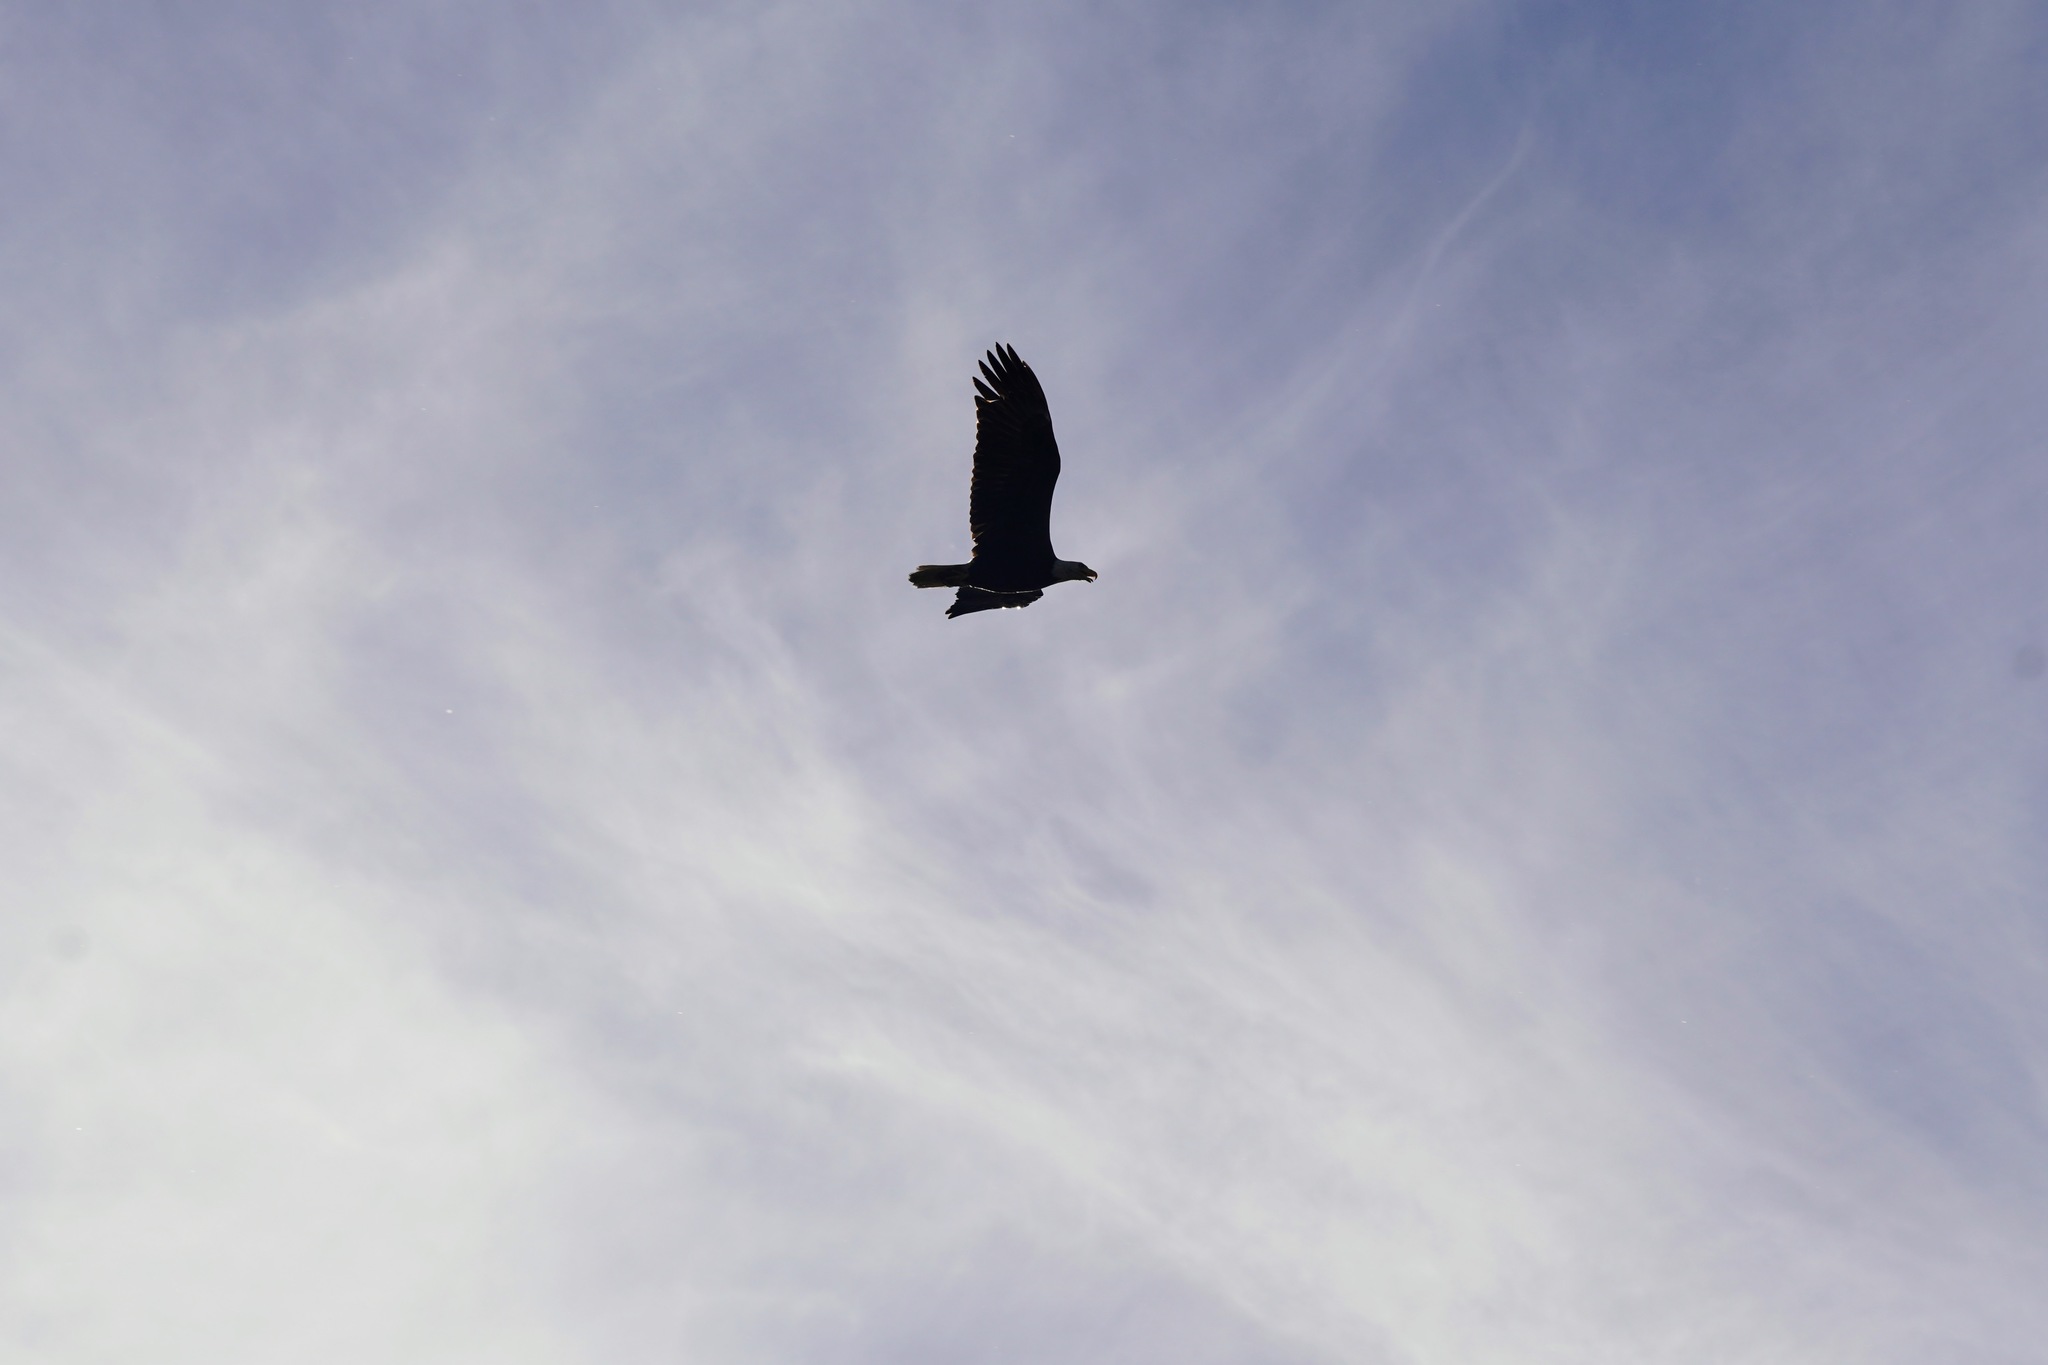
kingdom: Animalia
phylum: Chordata
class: Aves
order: Accipitriformes
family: Accipitridae
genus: Haliaeetus
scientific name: Haliaeetus leucocephalus
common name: Bald eagle
